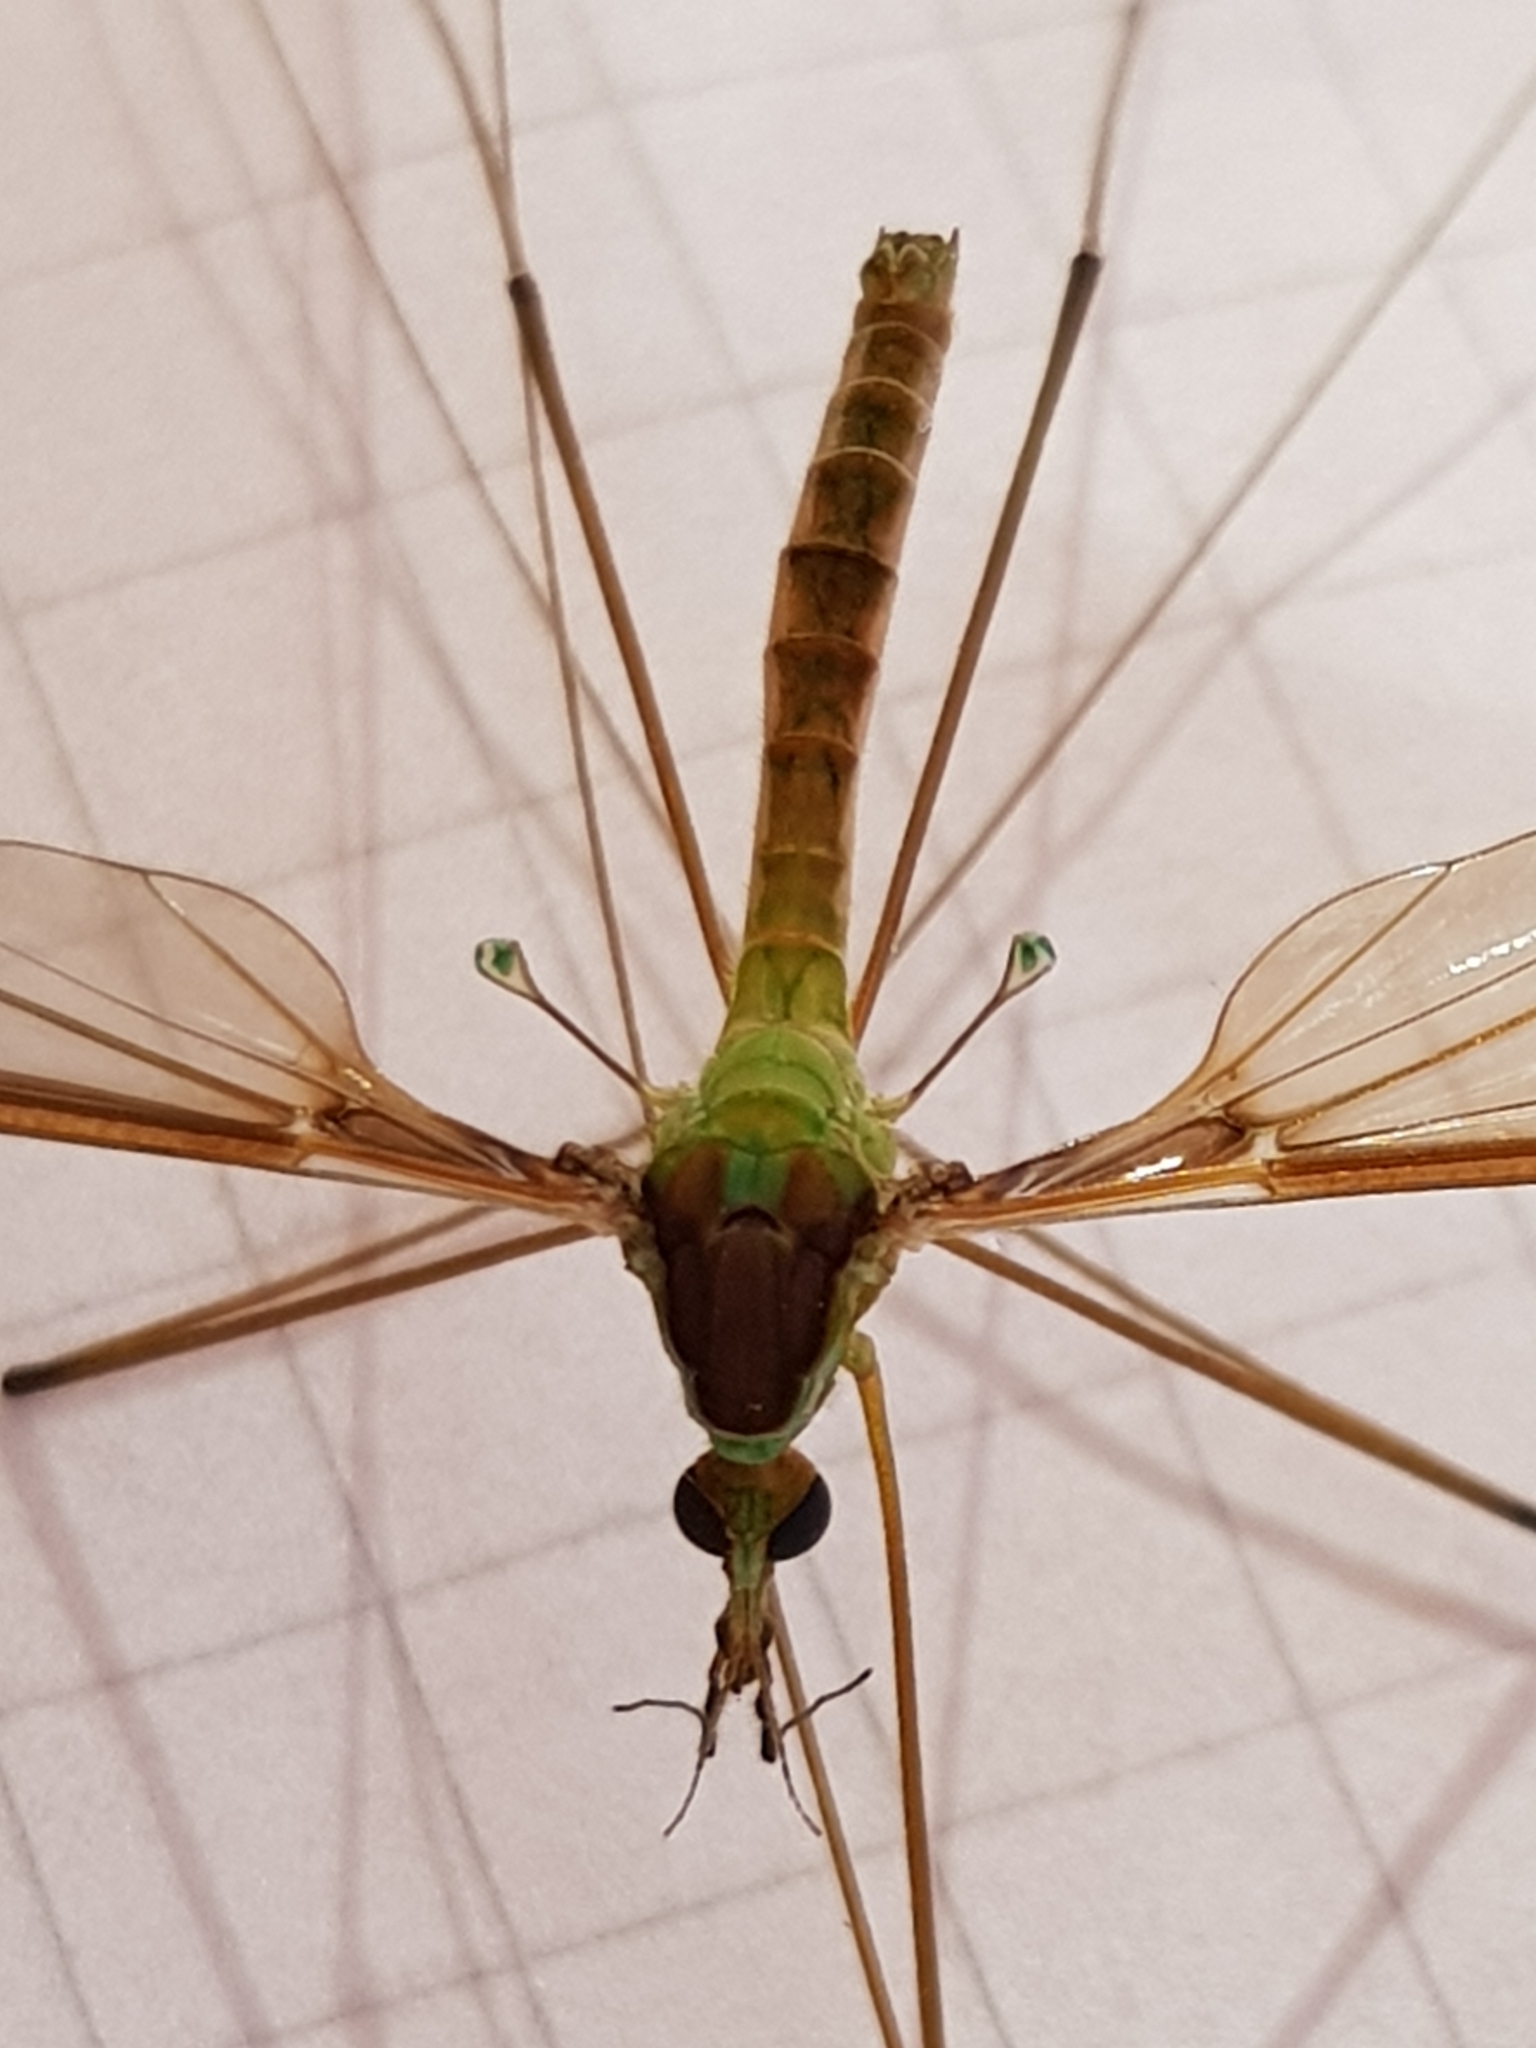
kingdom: Animalia
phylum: Arthropoda
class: Insecta
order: Diptera
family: Tipulidae
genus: Leptotarsus
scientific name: Leptotarsus albistigma
